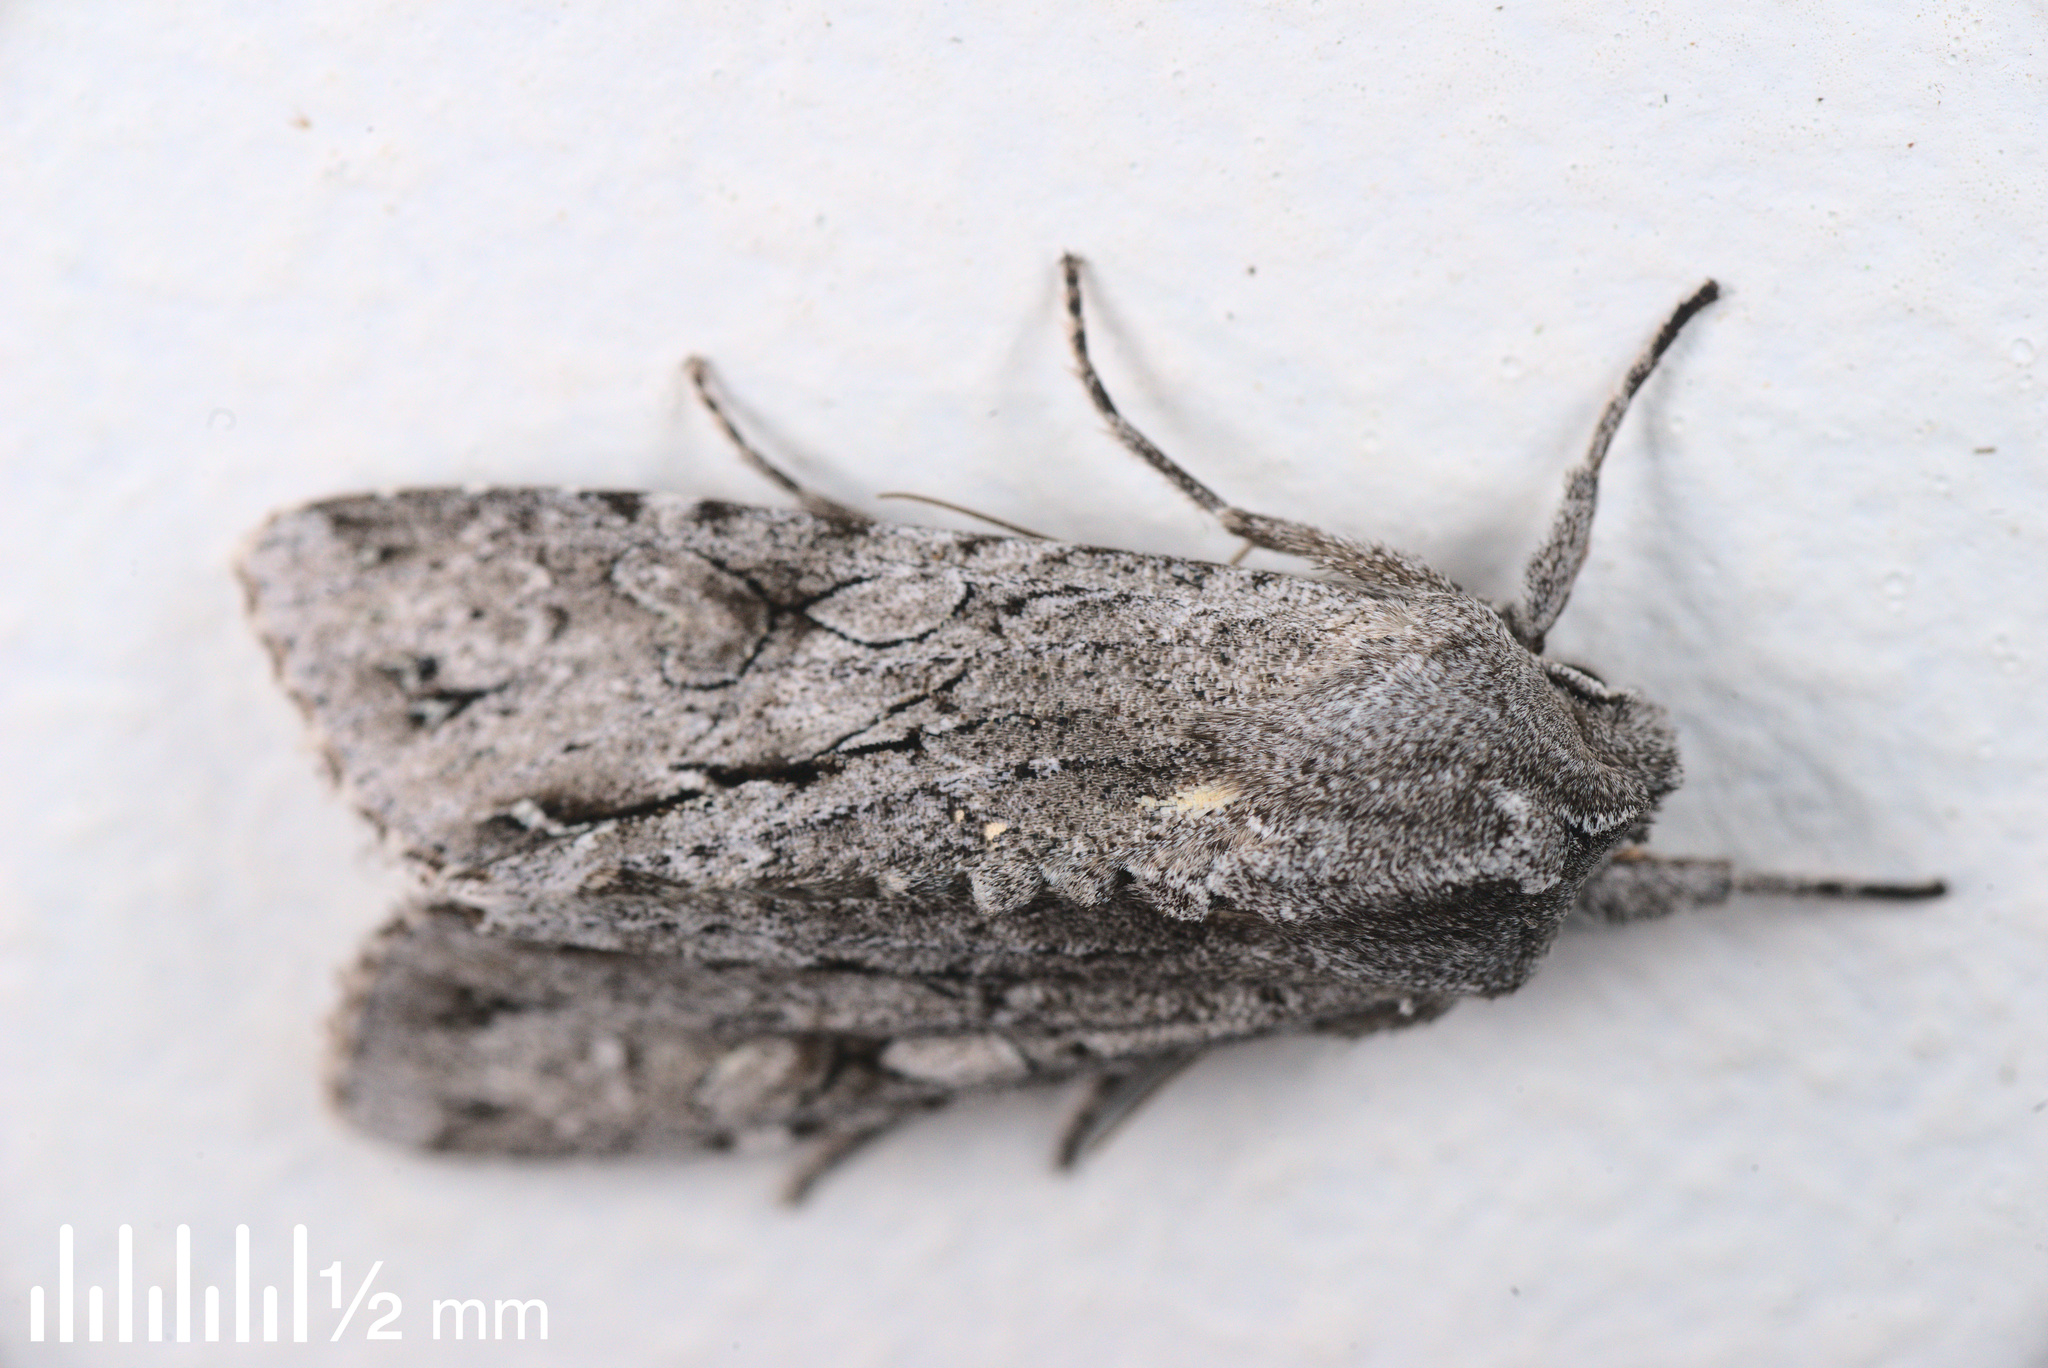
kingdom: Animalia
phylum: Arthropoda
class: Insecta
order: Lepidoptera
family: Noctuidae
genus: Ichneutica
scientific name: Ichneutica
